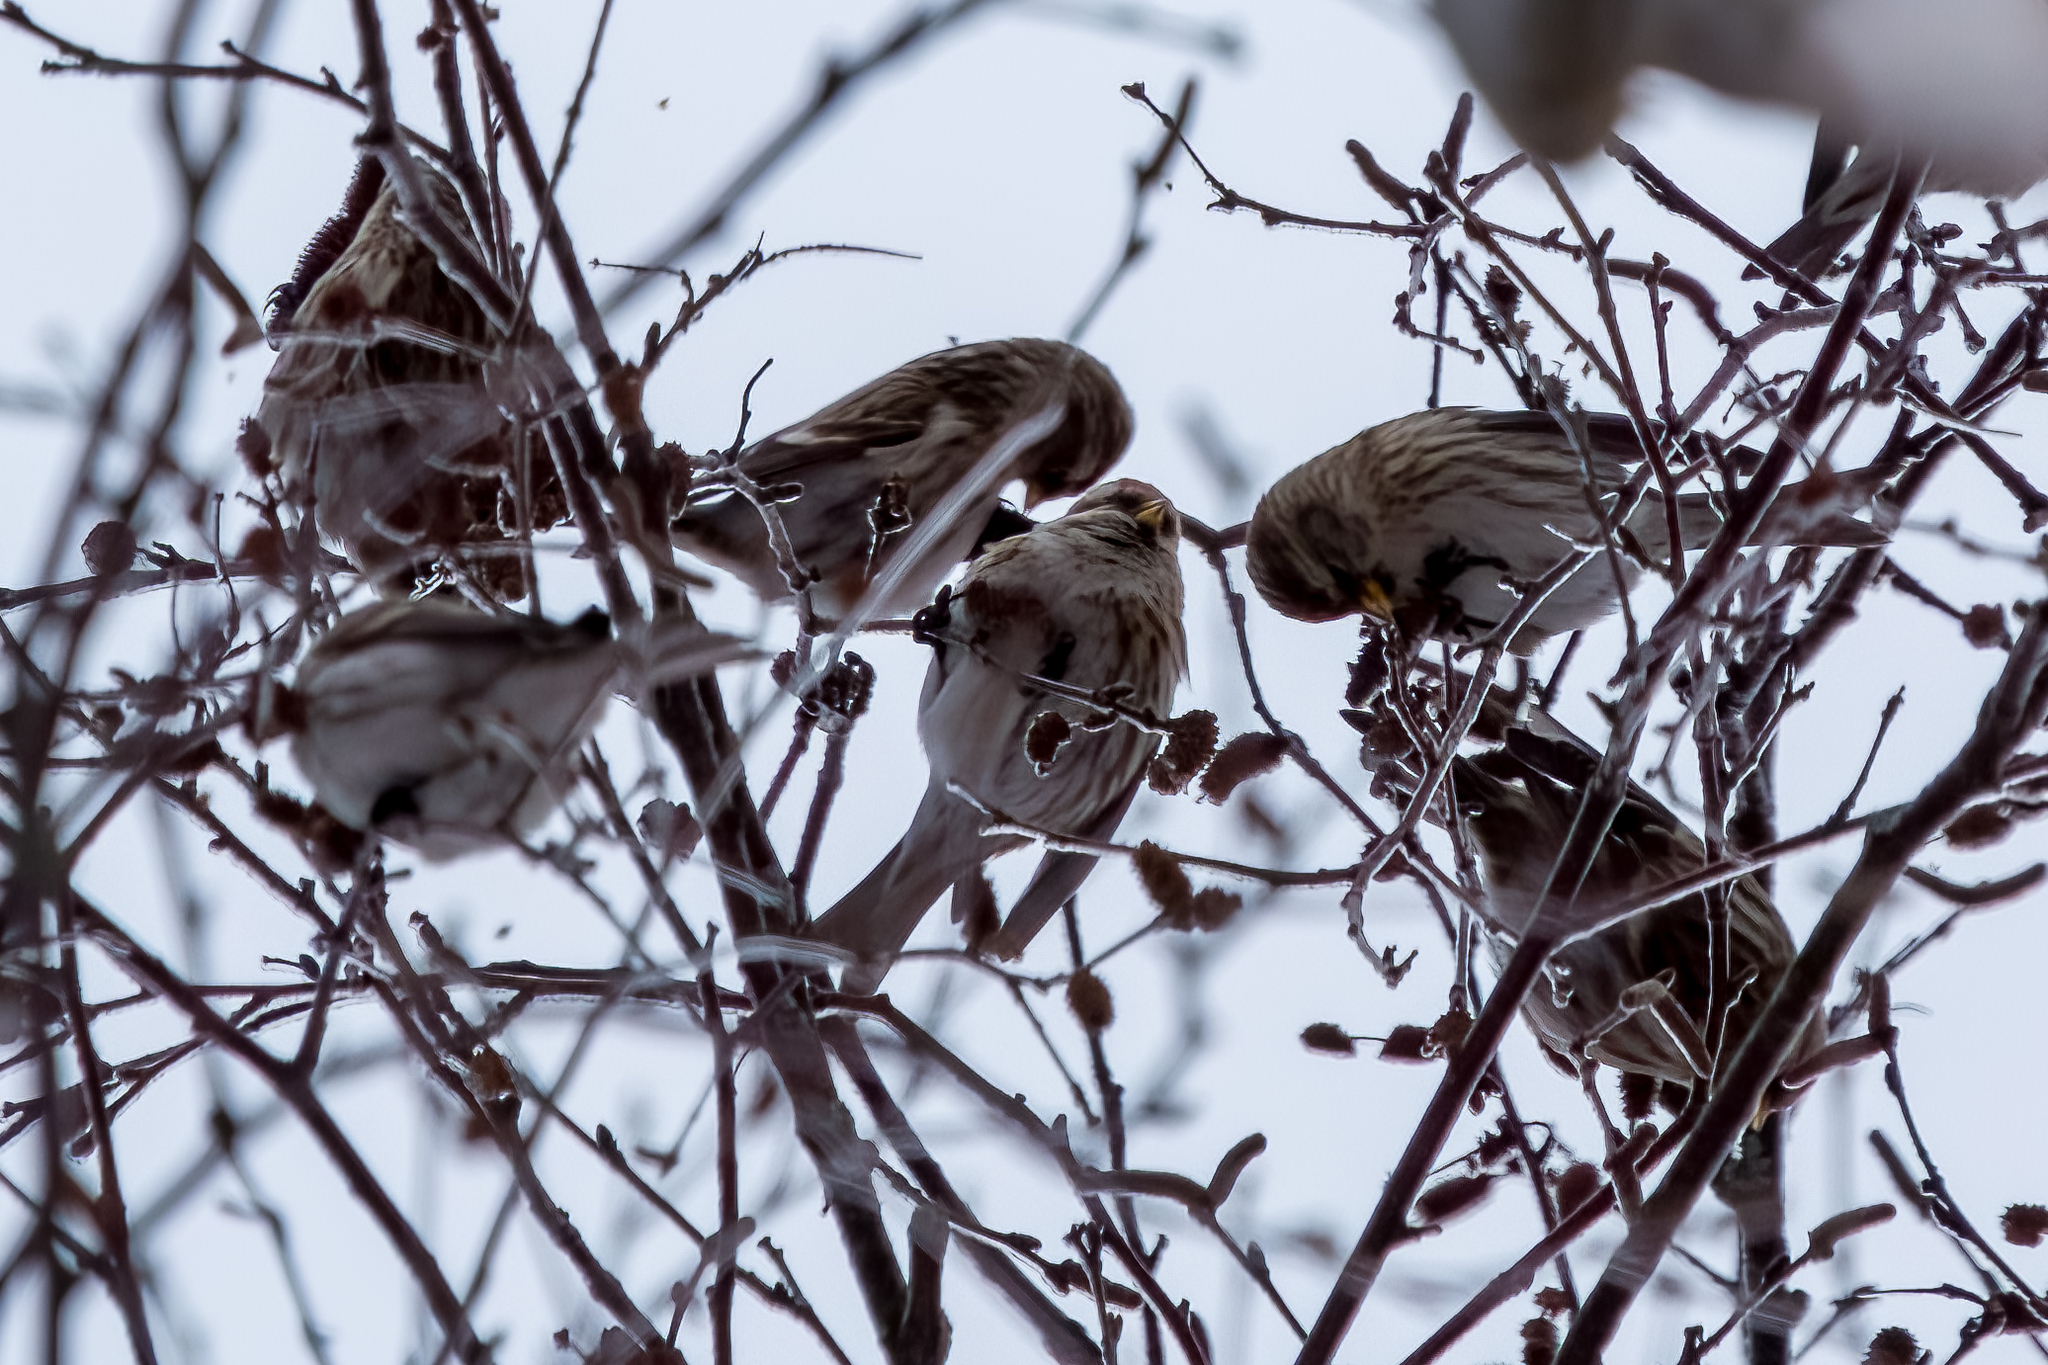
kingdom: Animalia
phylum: Chordata
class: Aves
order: Passeriformes
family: Fringillidae
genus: Acanthis
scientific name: Acanthis flammea
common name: Common redpoll
